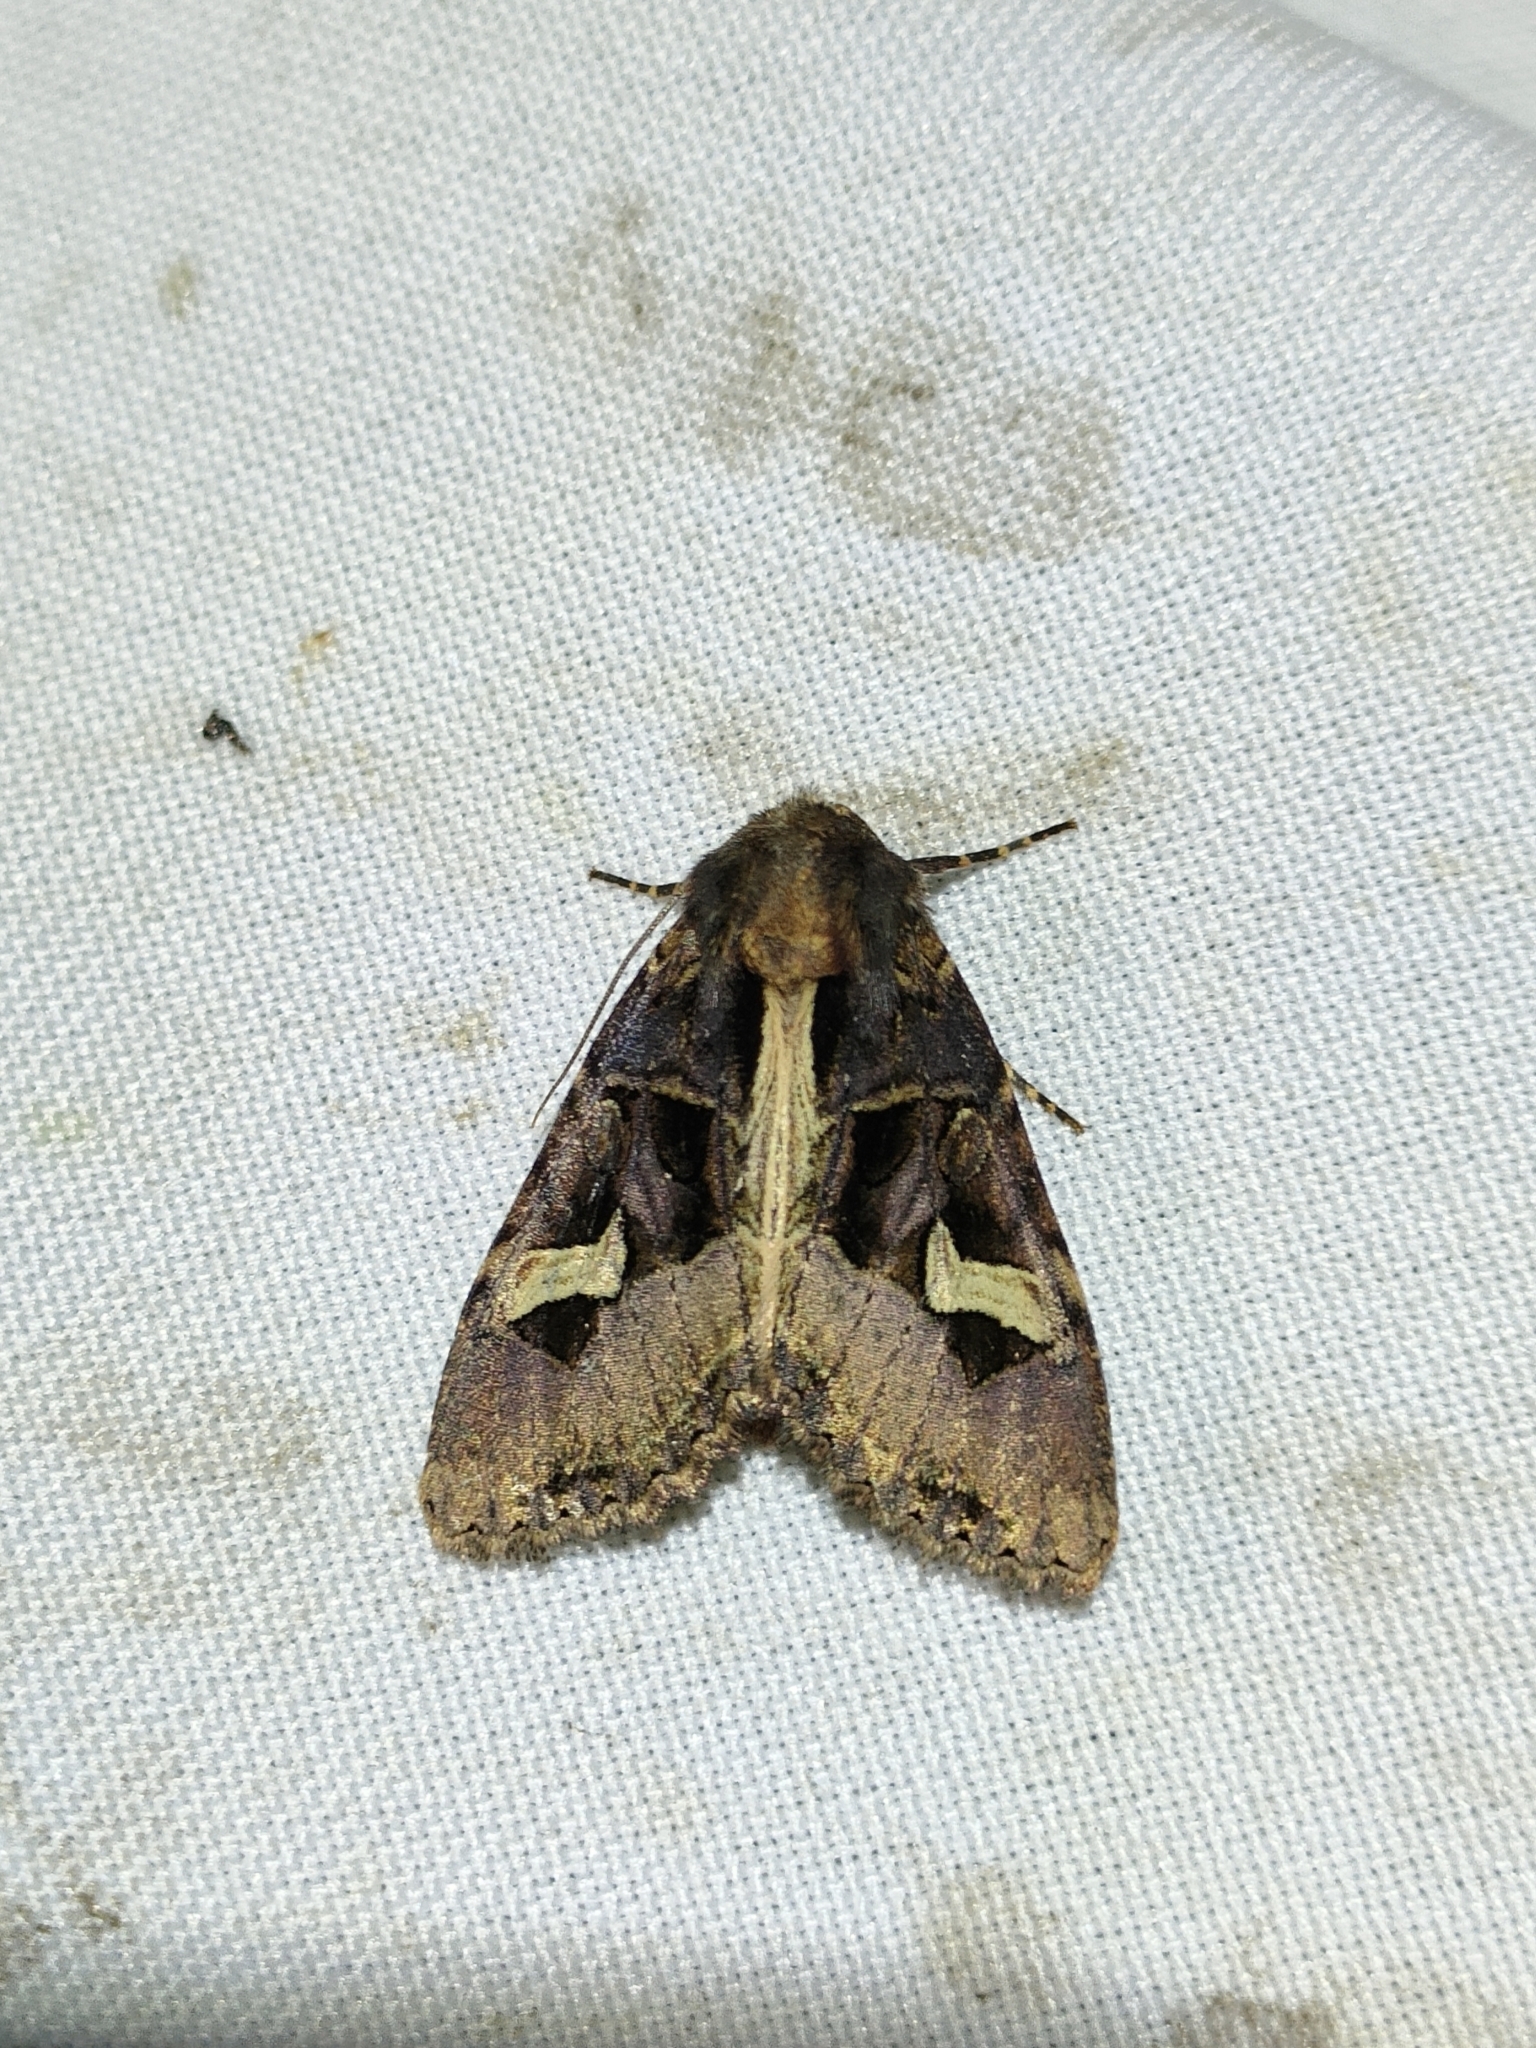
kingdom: Animalia
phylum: Arthropoda
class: Insecta
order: Lepidoptera
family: Noctuidae
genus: Trigonophora
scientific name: Trigonophora flammea
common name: Flame brocade
